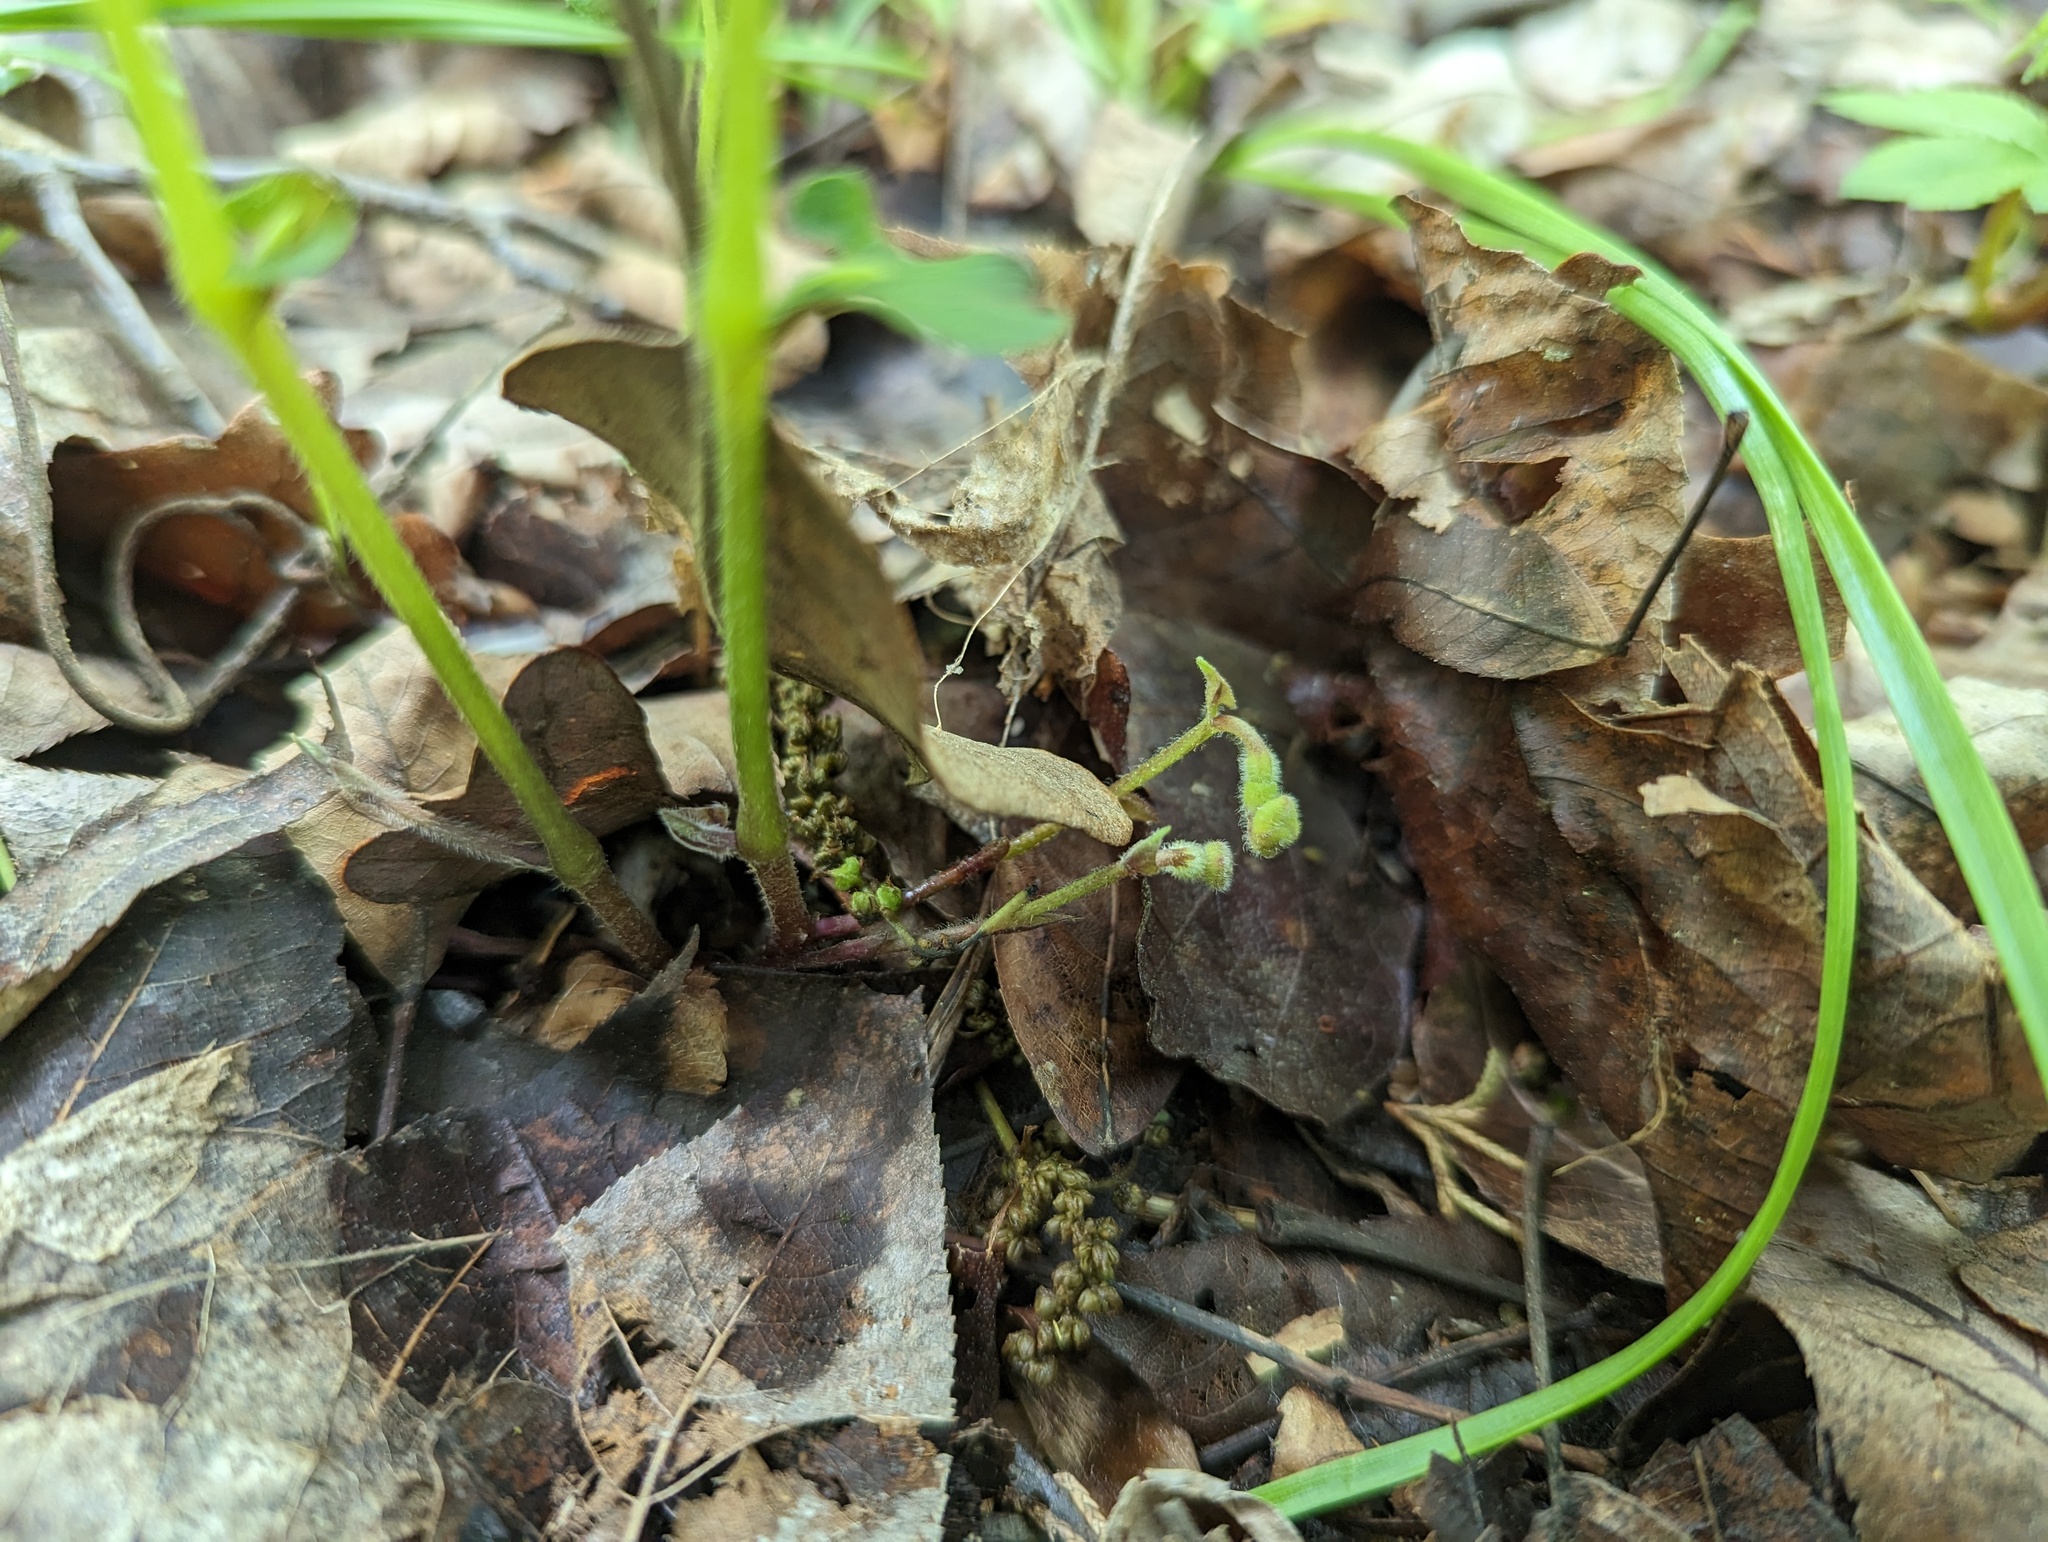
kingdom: Plantae
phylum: Tracheophyta
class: Magnoliopsida
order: Piperales
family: Aristolochiaceae
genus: Endodeca
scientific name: Endodeca serpentaria
